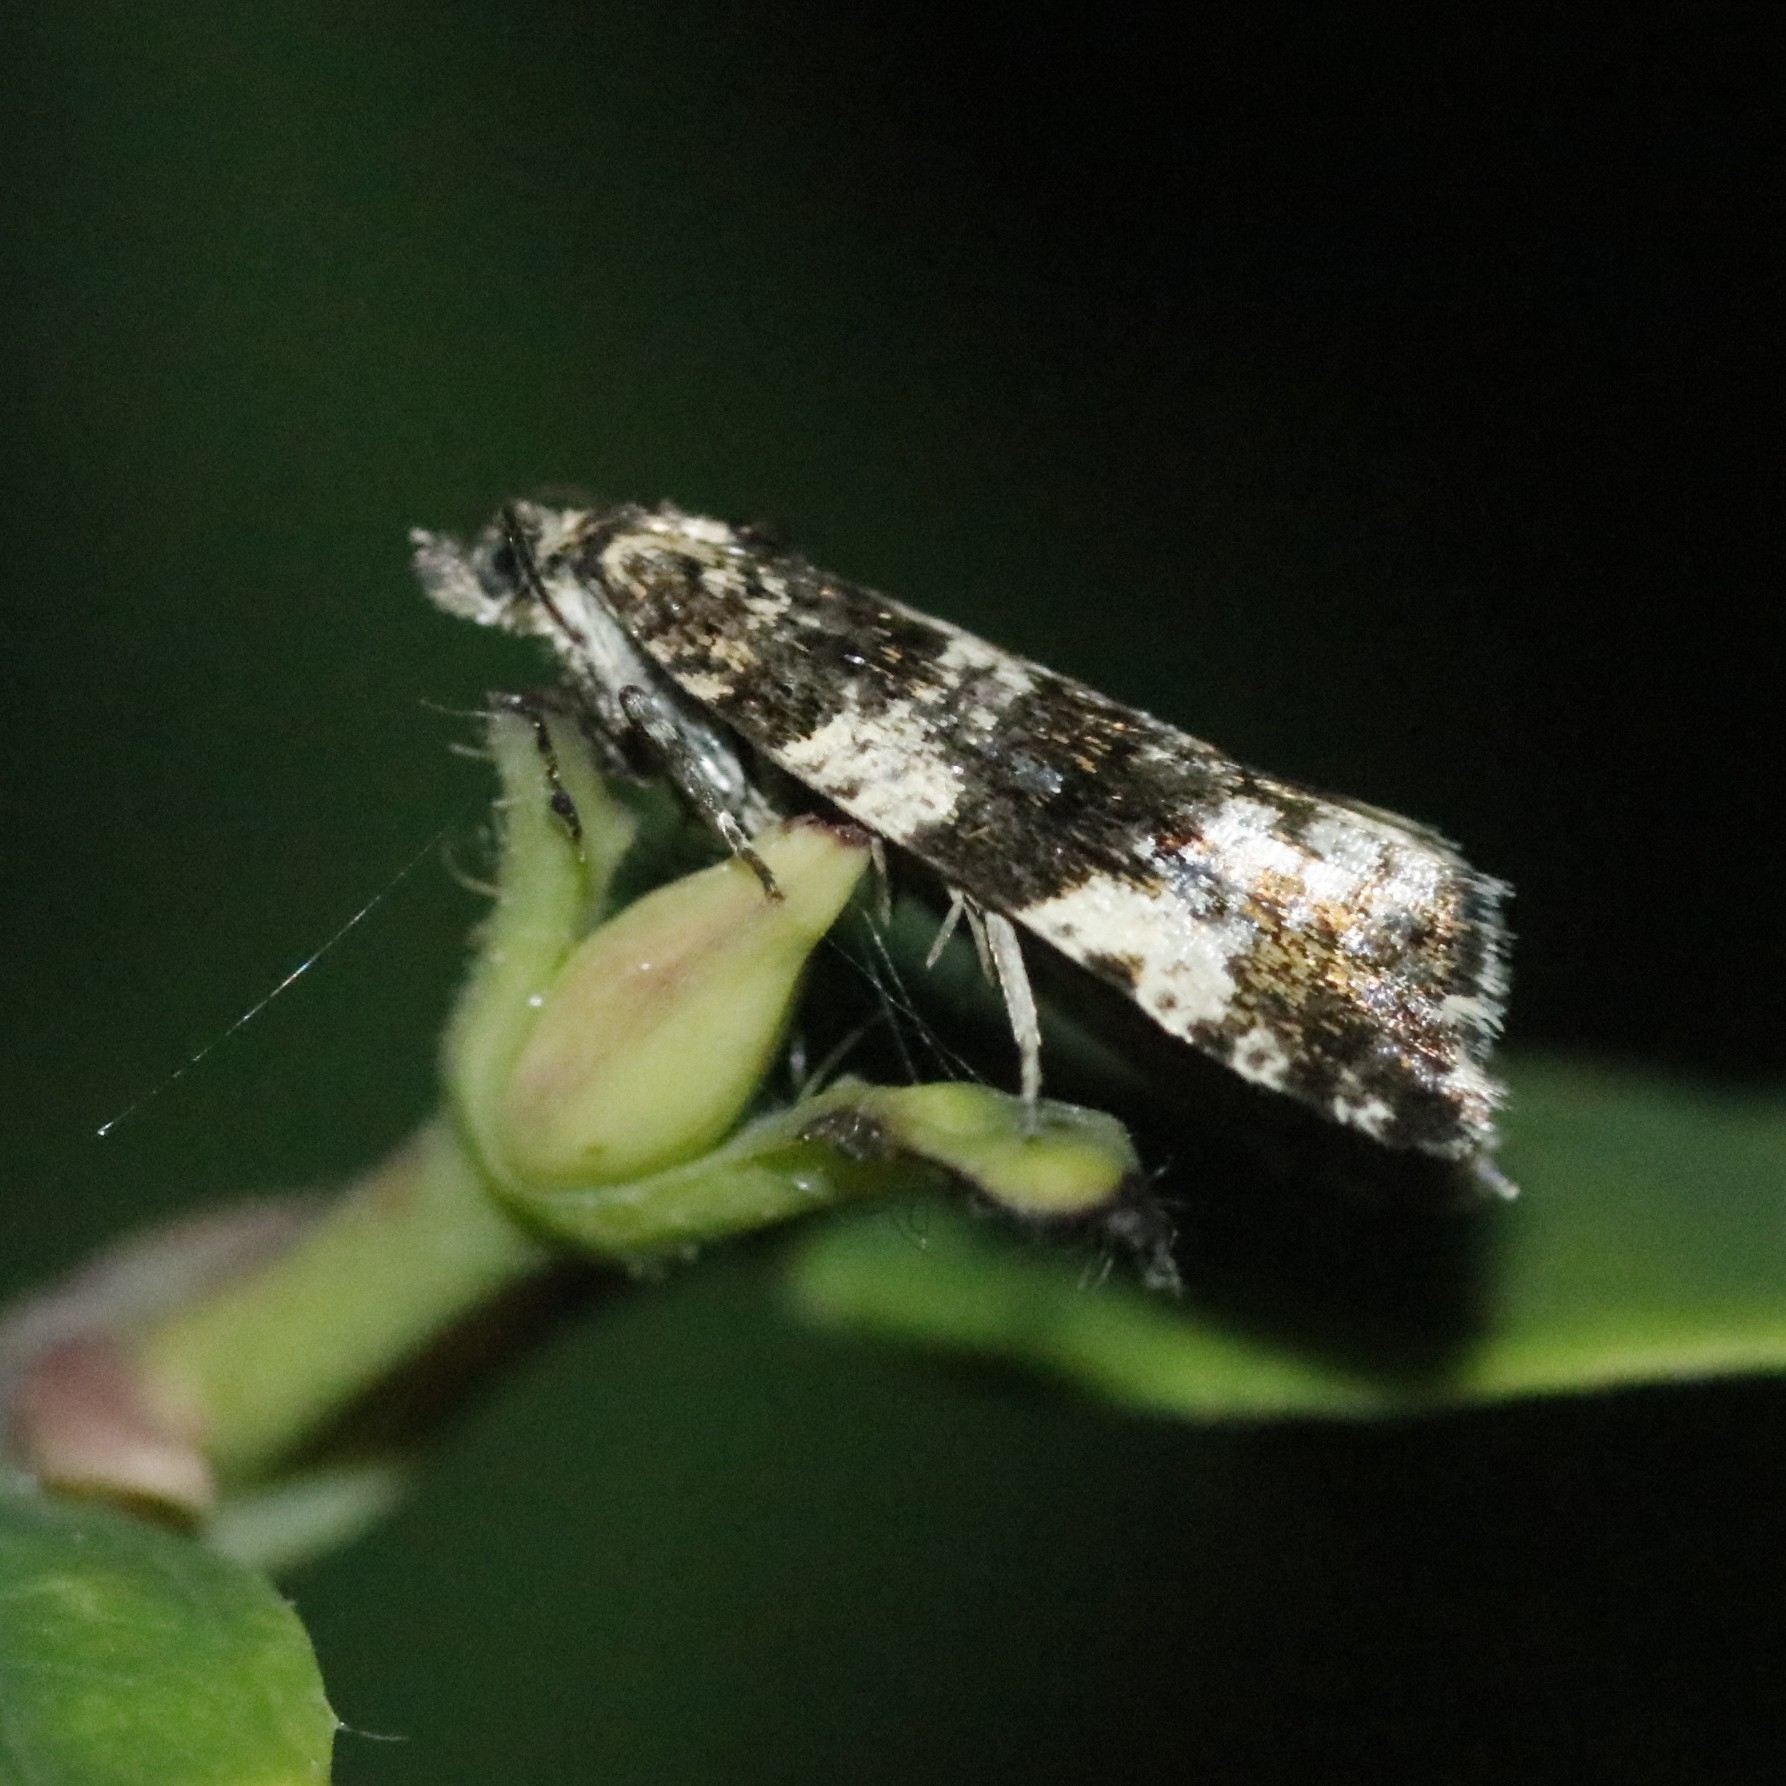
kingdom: Animalia
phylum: Arthropoda
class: Insecta
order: Lepidoptera
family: Tortricidae
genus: Argyroploce
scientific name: Argyroploce bipunctana
